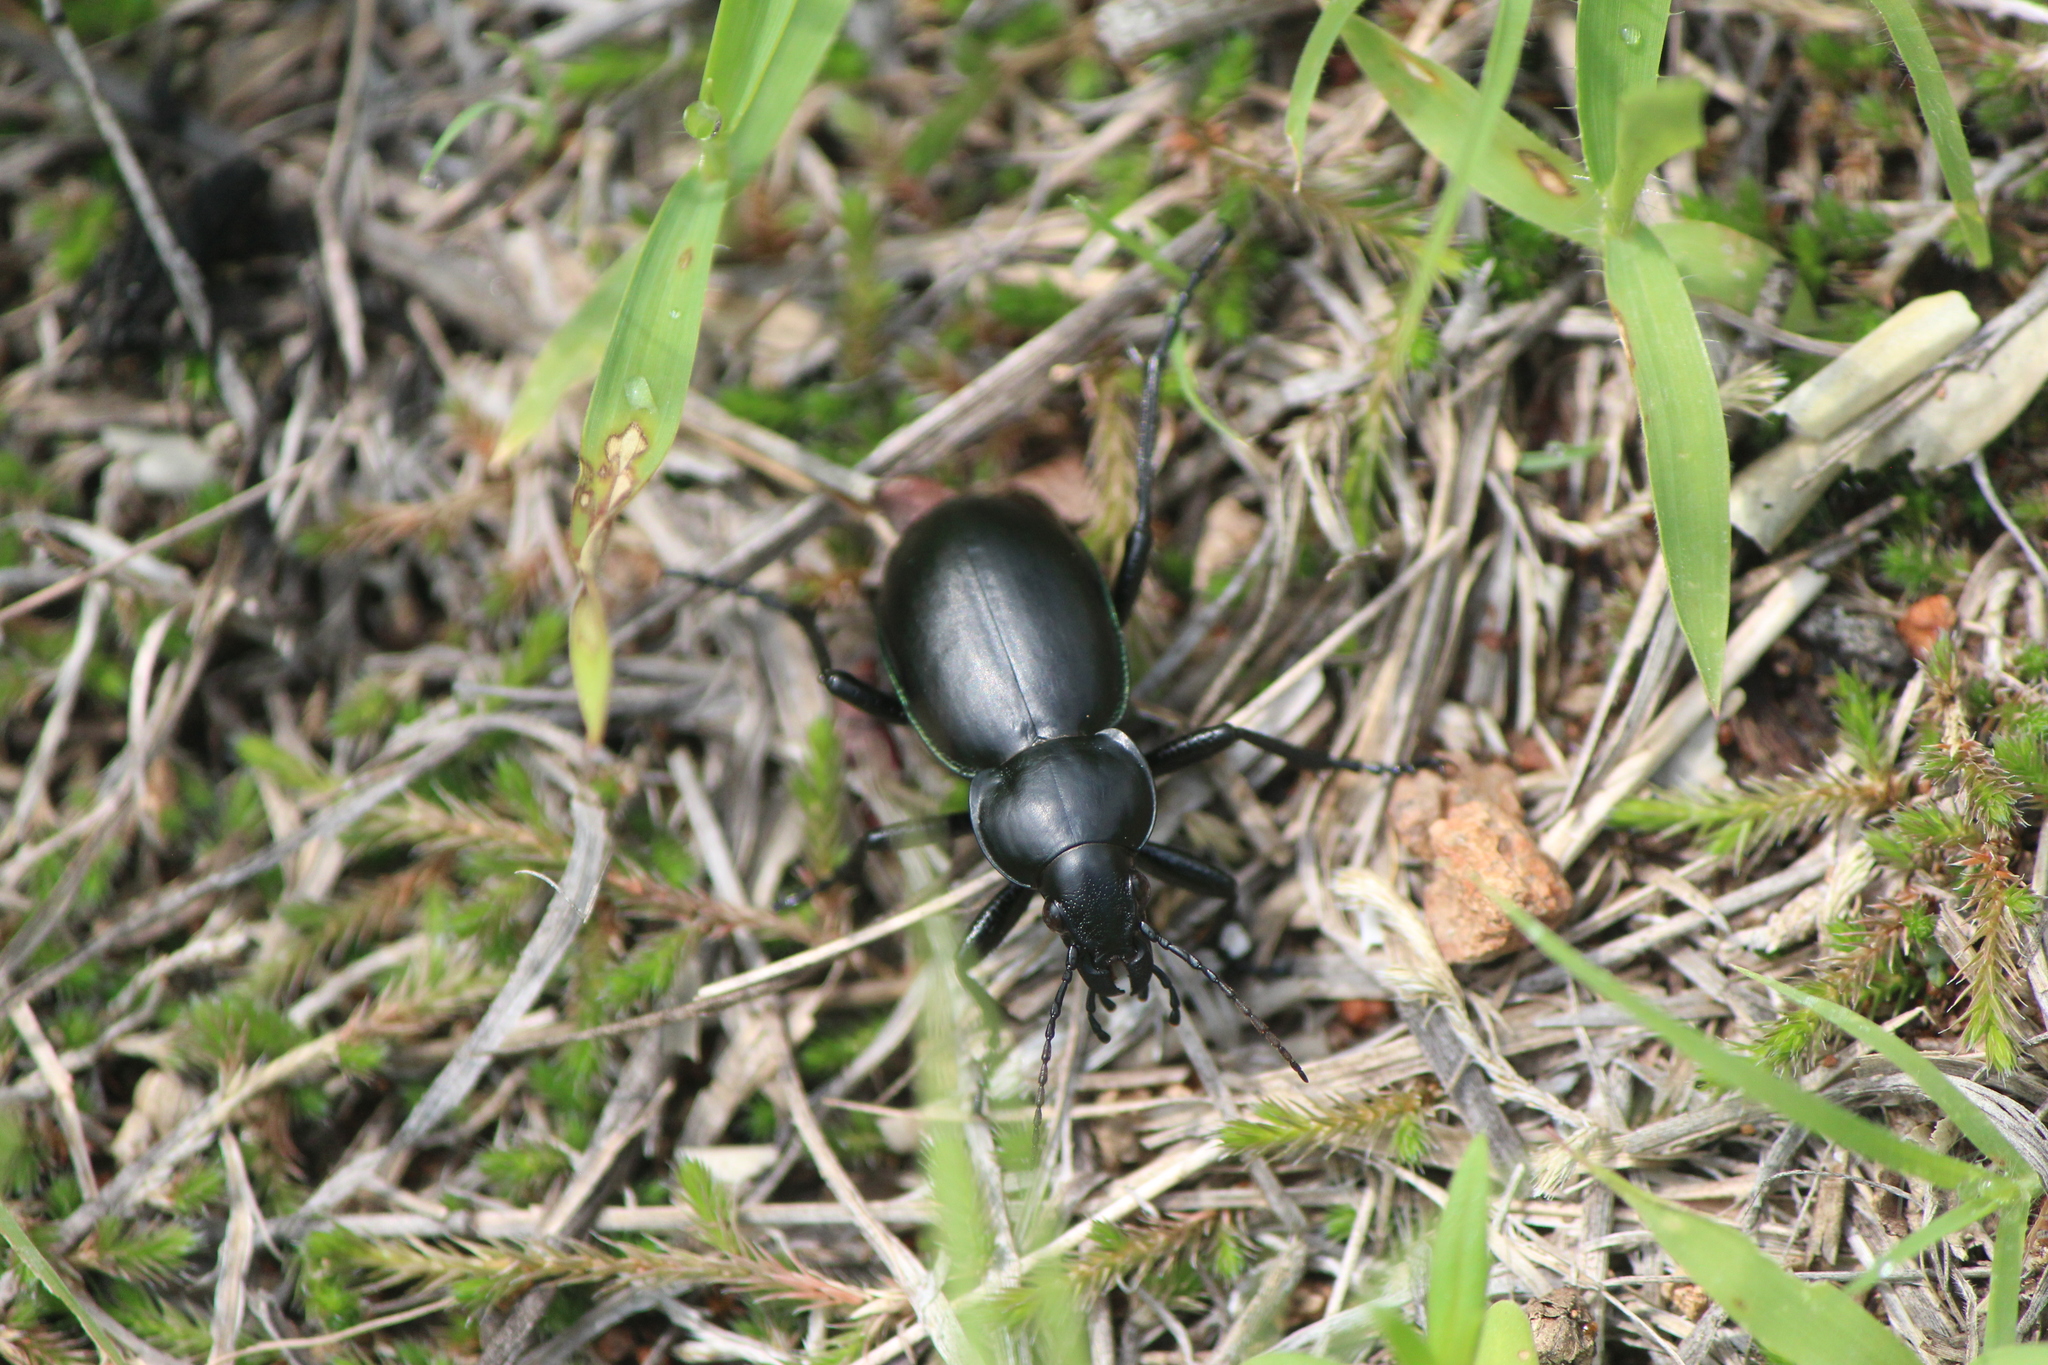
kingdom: Animalia
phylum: Arthropoda
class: Insecta
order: Coleoptera
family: Carabidae
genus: Calosoma
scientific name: Calosoma atrovirens
